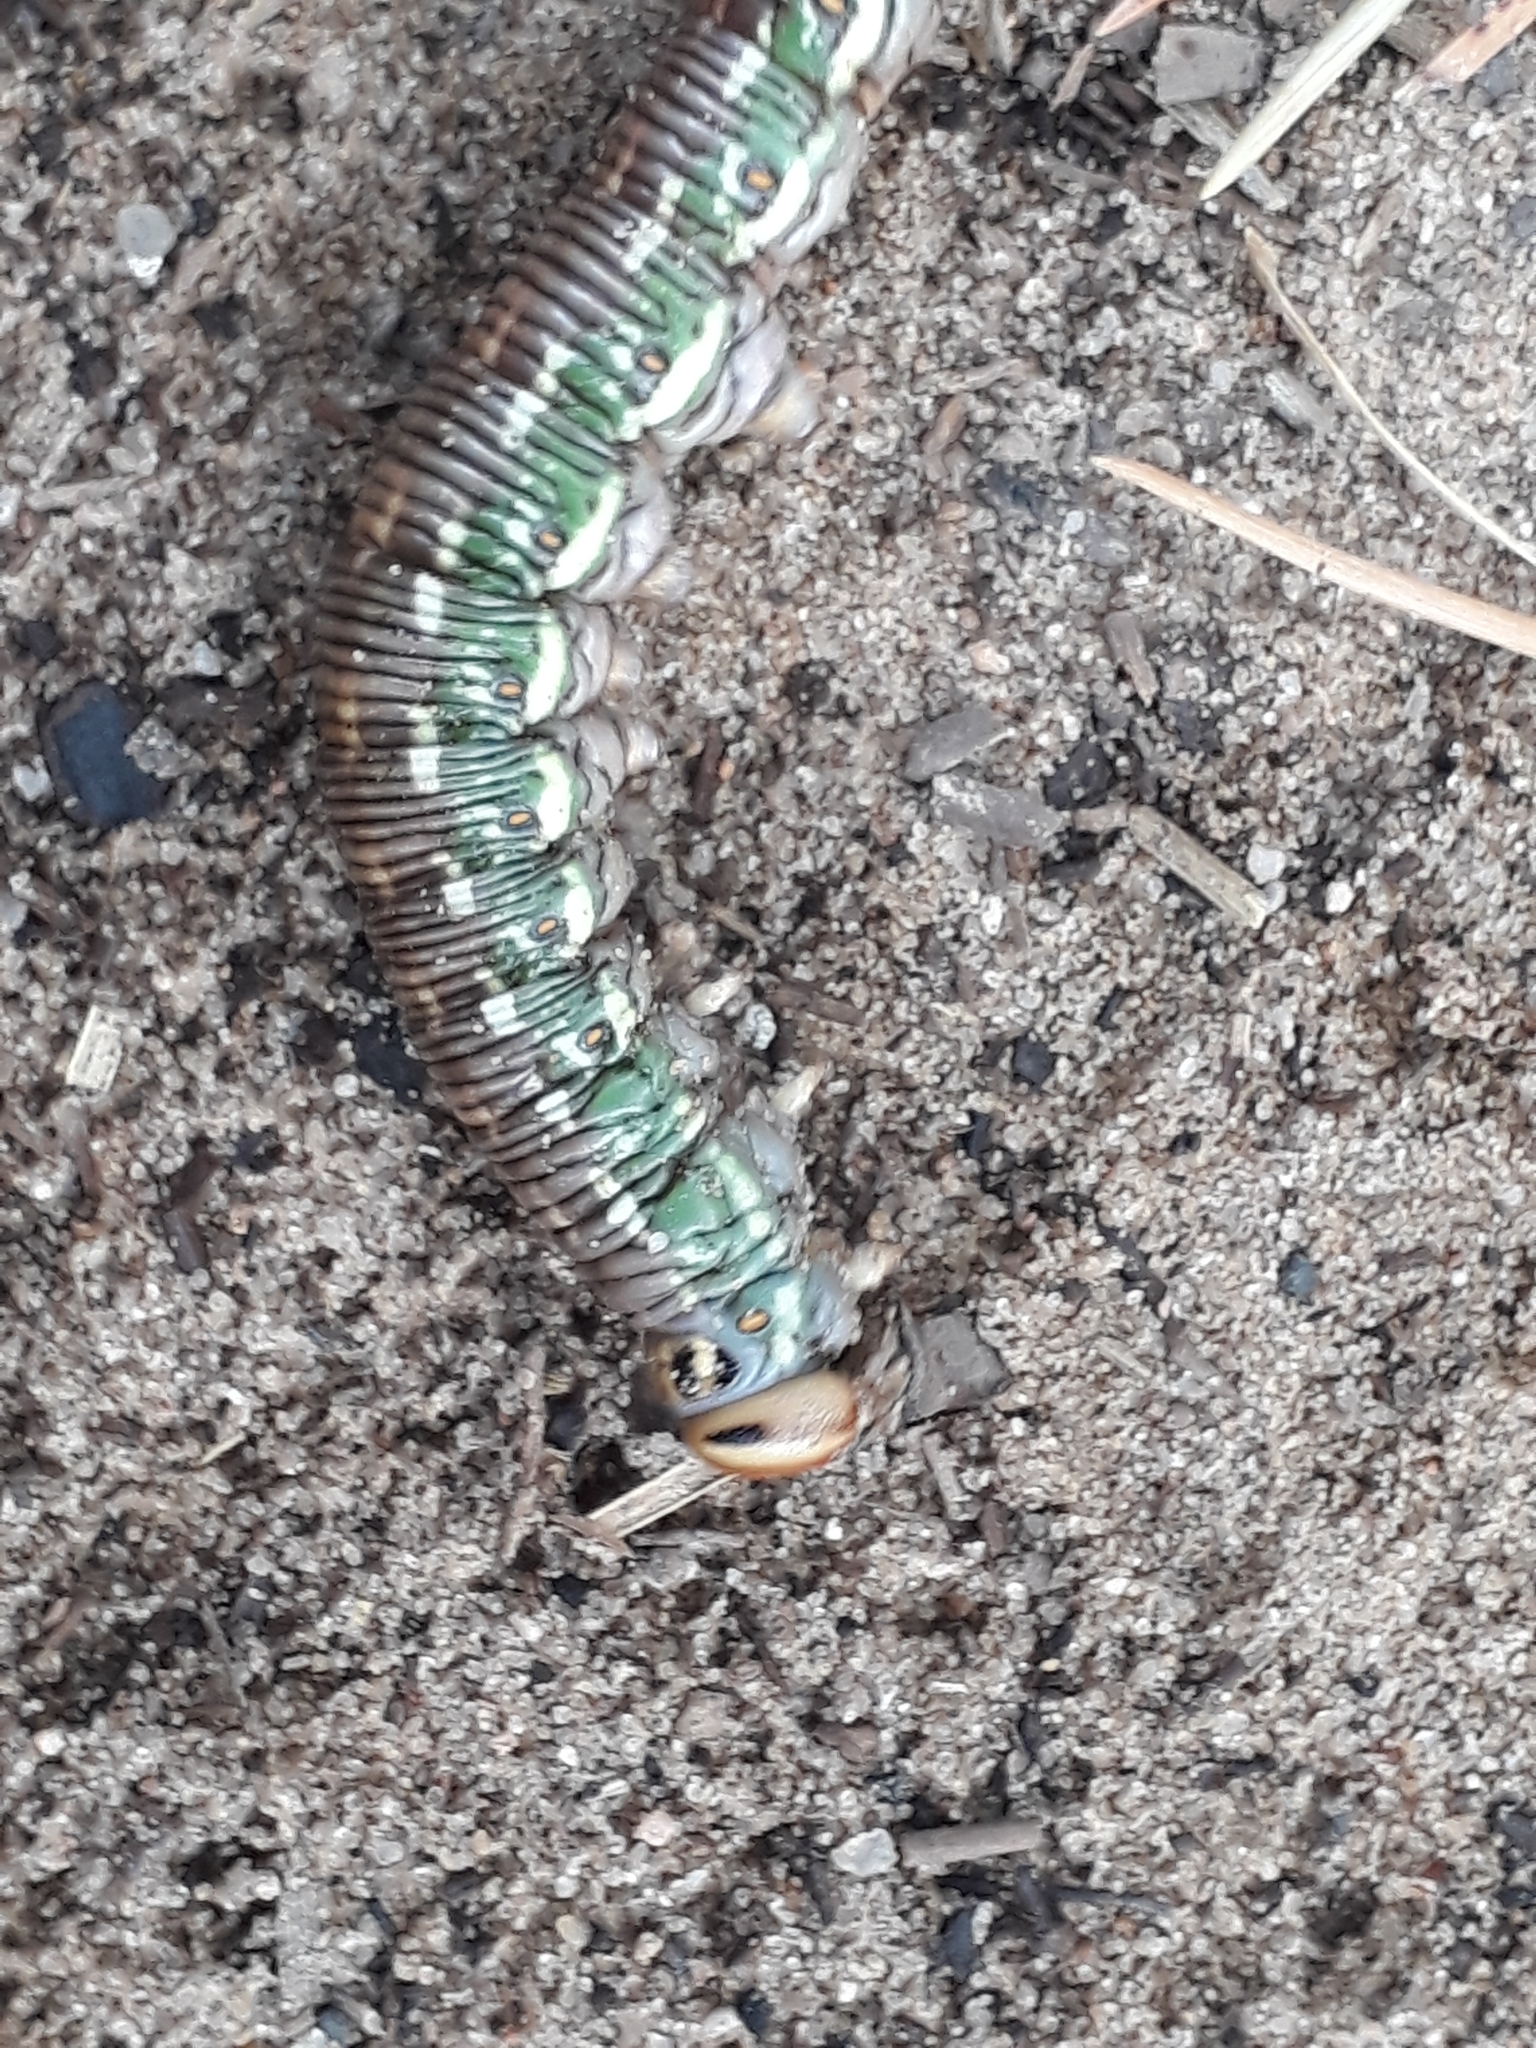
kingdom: Animalia
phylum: Arthropoda
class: Insecta
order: Lepidoptera
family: Sphingidae
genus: Sphinx
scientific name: Sphinx pinastri
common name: Pine hawk-moth
